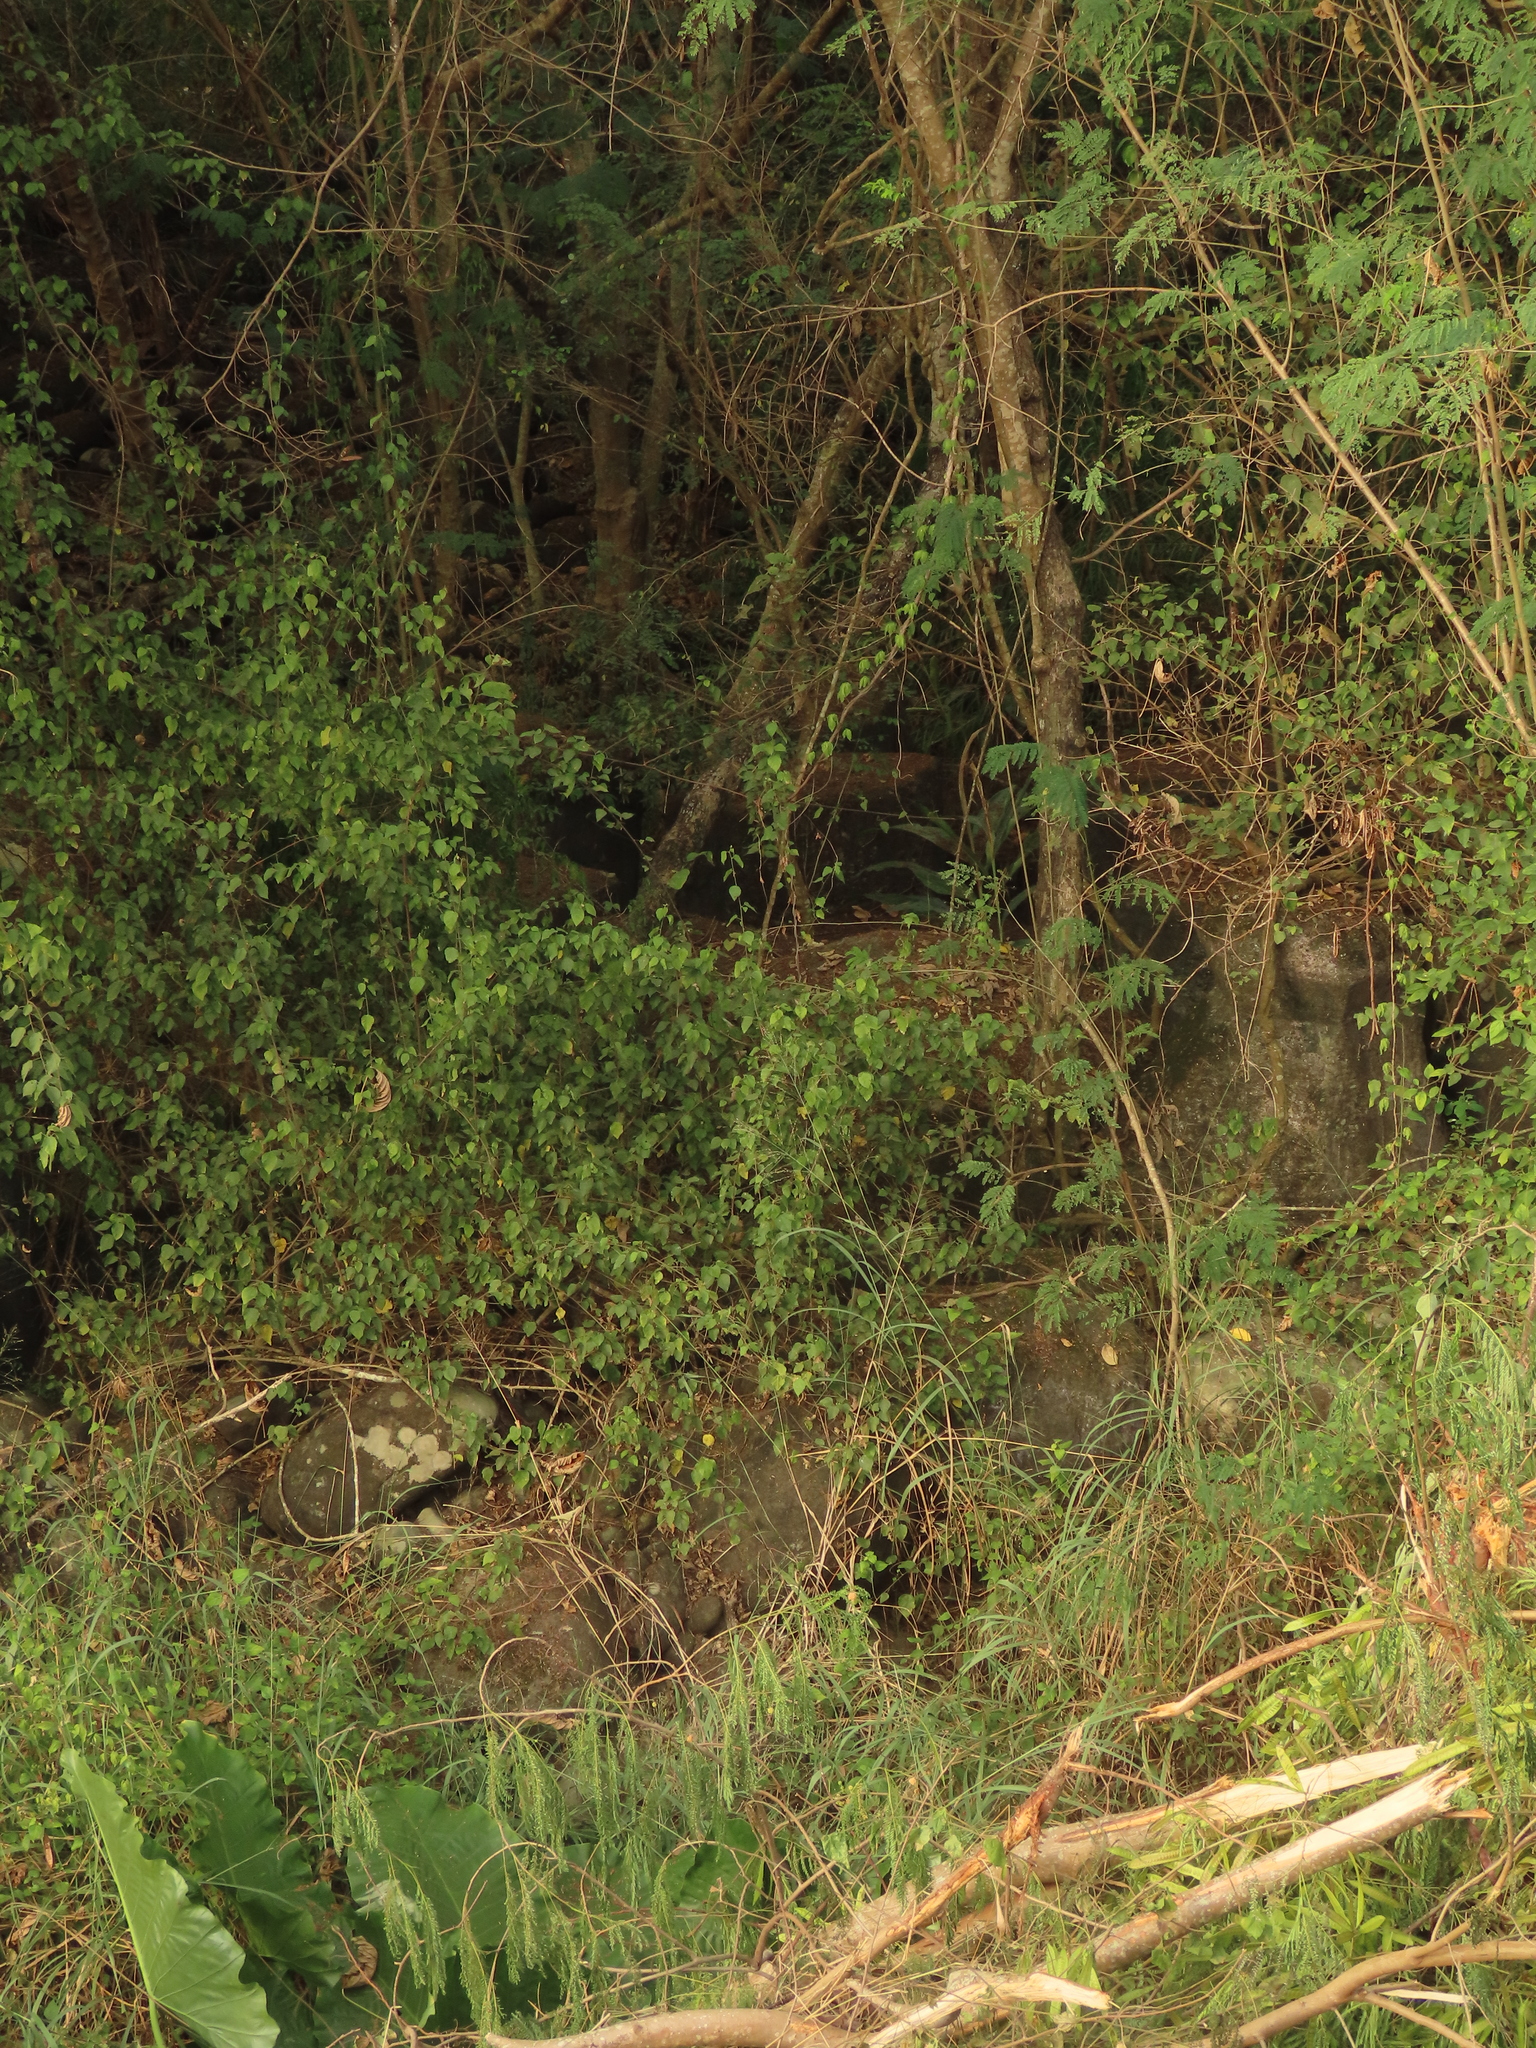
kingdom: Plantae
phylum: Tracheophyta
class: Magnoliopsida
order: Malpighiales
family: Euphorbiaceae
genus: Mallotus
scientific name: Mallotus repandus
